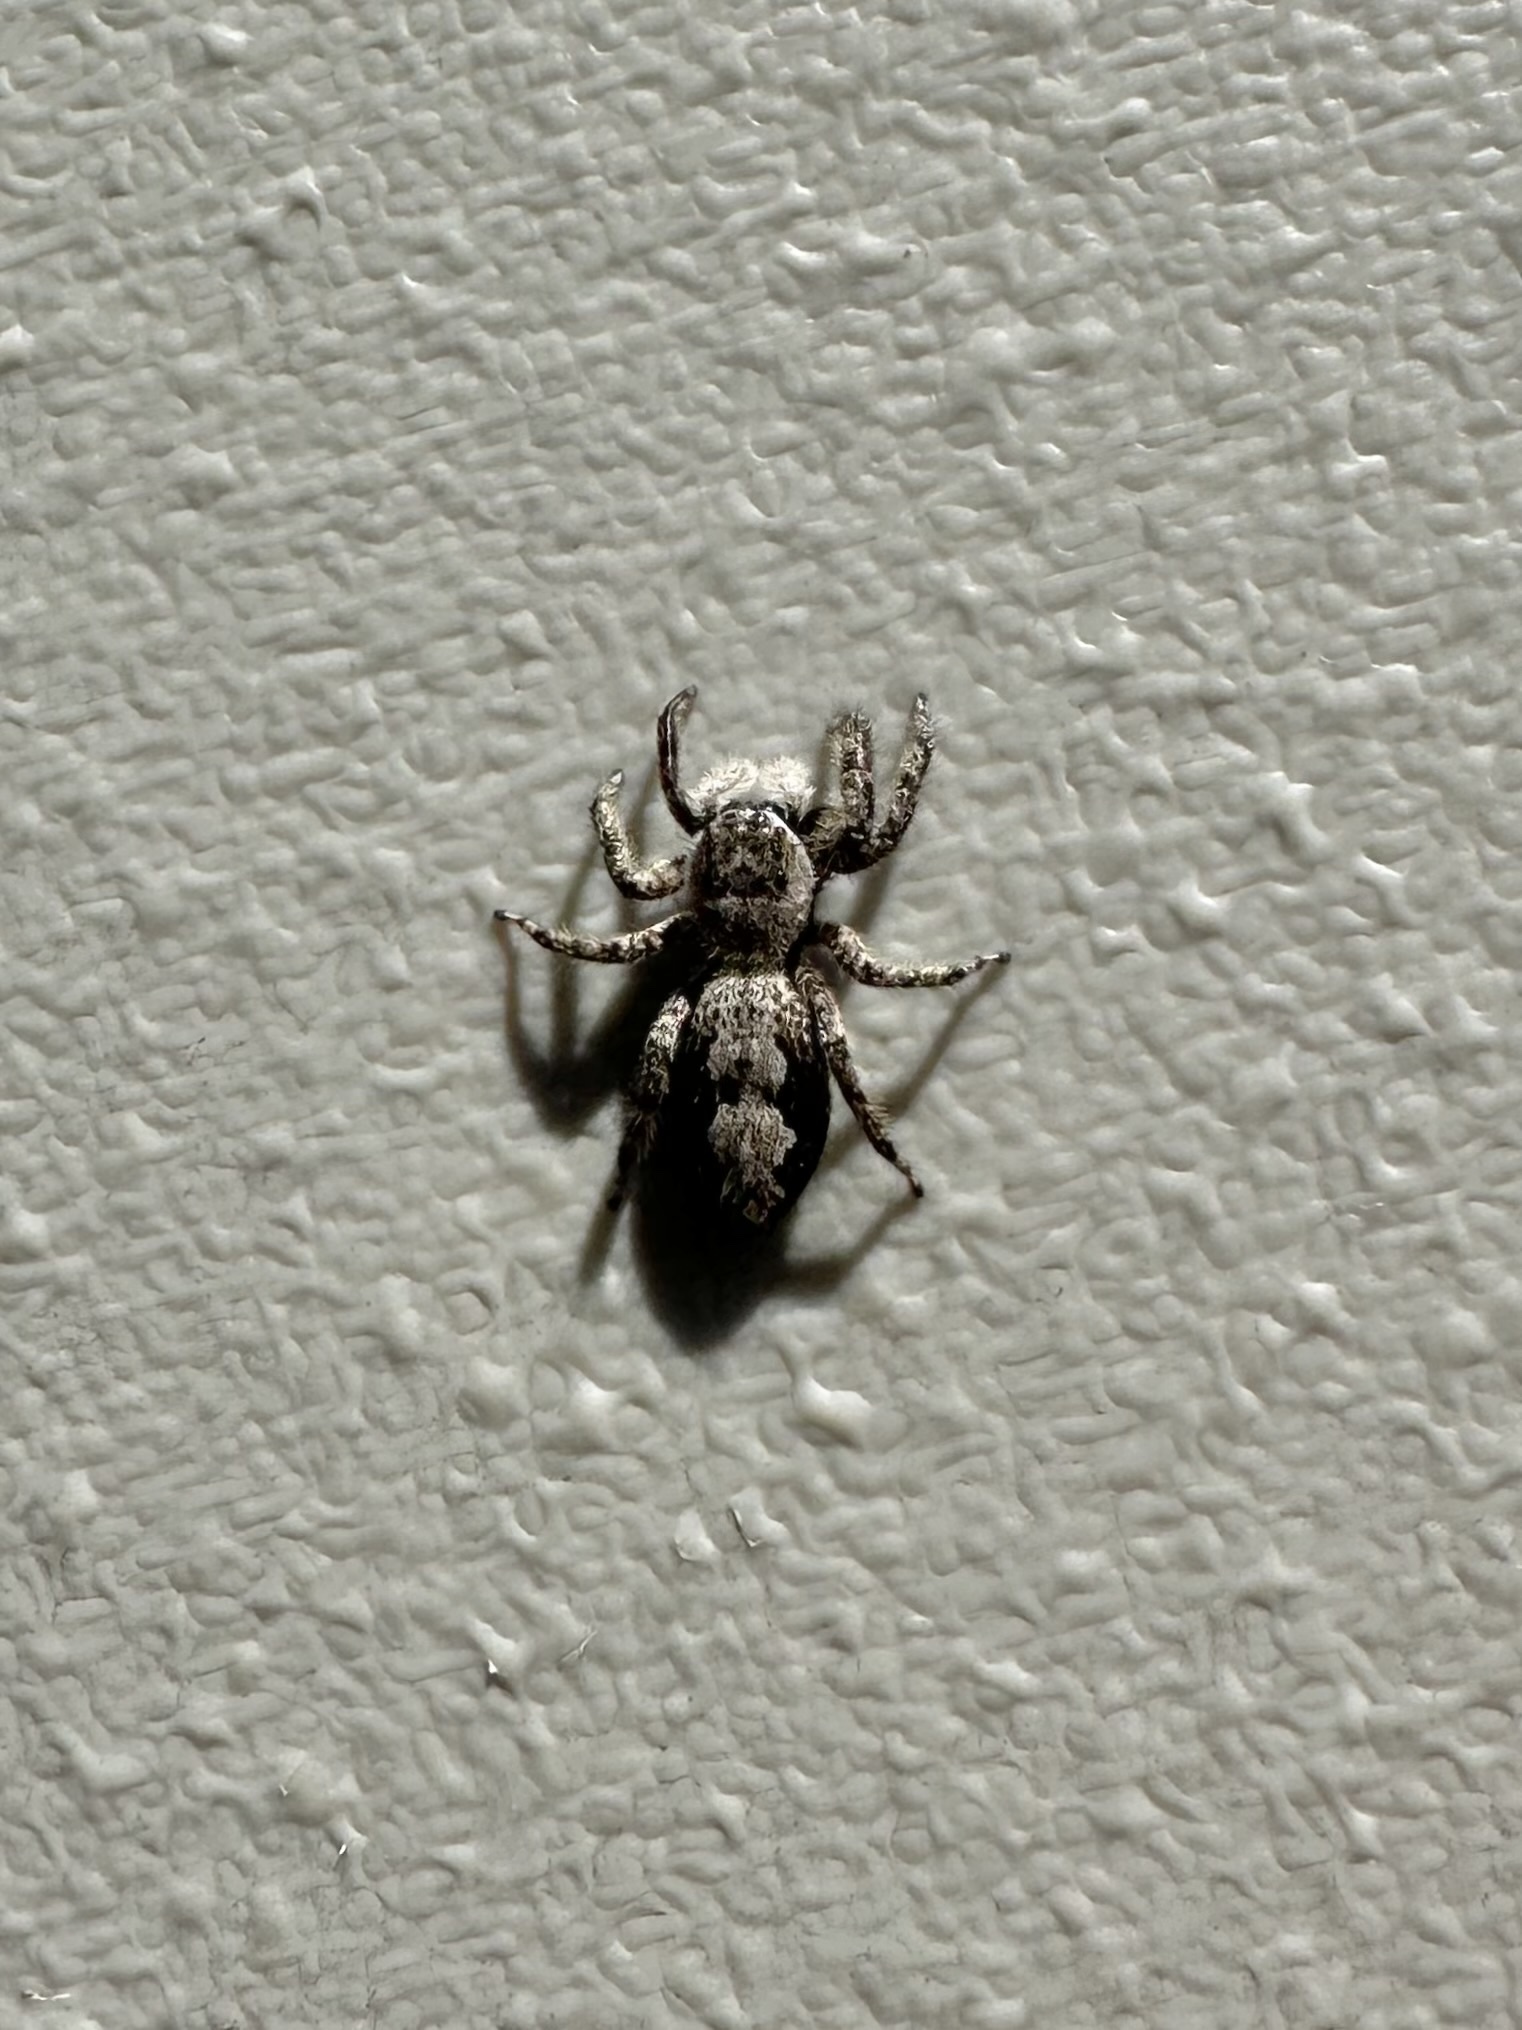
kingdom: Animalia
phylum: Arthropoda
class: Arachnida
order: Araneae
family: Salticidae
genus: Platycryptus
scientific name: Platycryptus undatus
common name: Tan jumping spider
